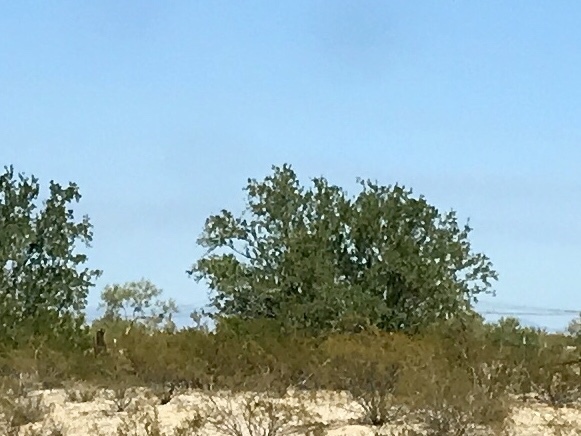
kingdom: Plantae
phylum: Tracheophyta
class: Magnoliopsida
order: Fabales
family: Fabaceae
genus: Olneya
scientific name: Olneya tesota
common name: Desert ironwood
